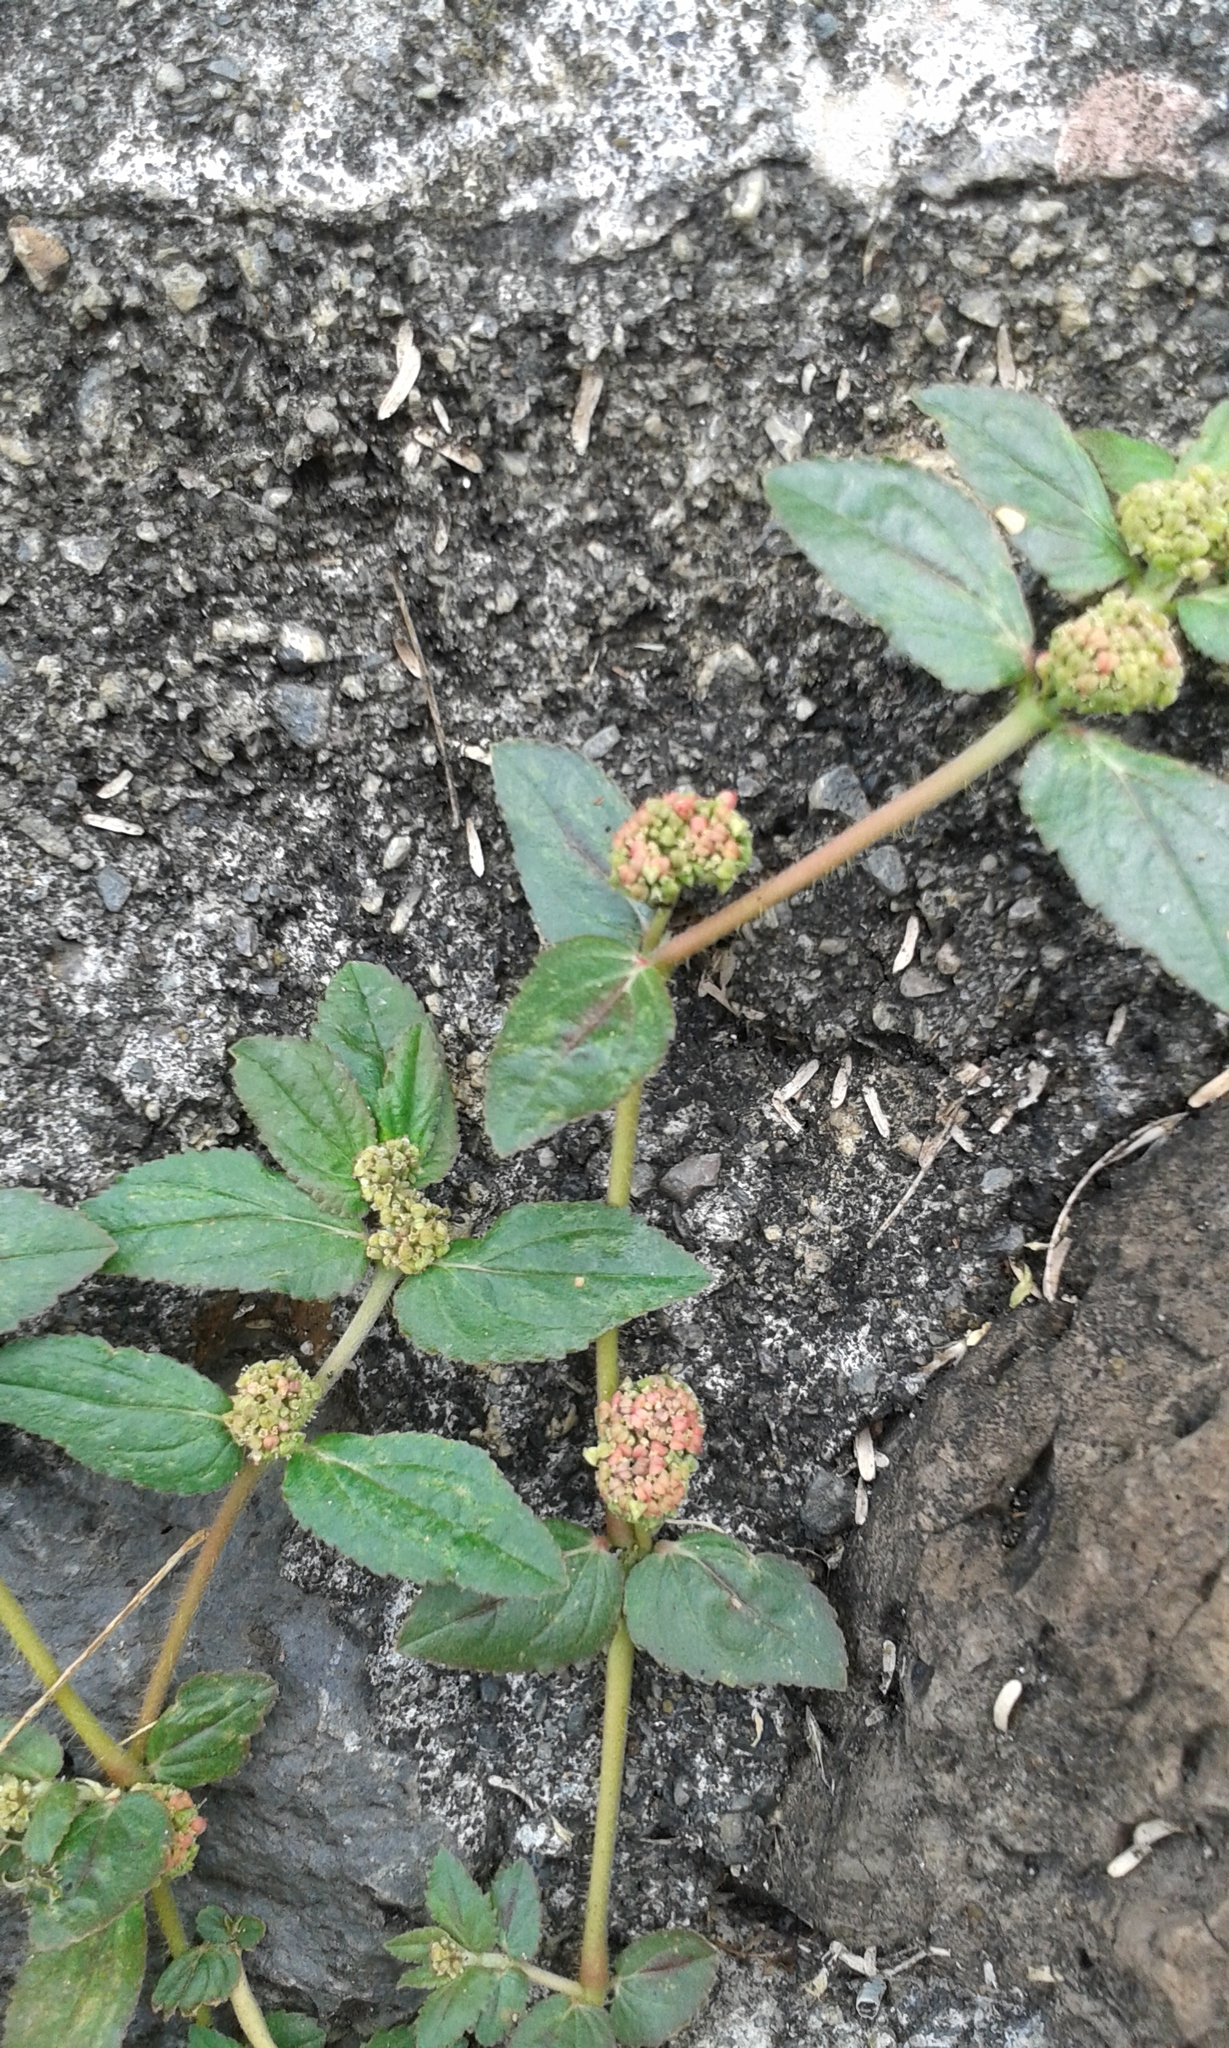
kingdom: Plantae
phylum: Tracheophyta
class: Magnoliopsida
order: Malpighiales
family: Euphorbiaceae
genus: Euphorbia
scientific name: Euphorbia hirta
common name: Pillpod sandmat
